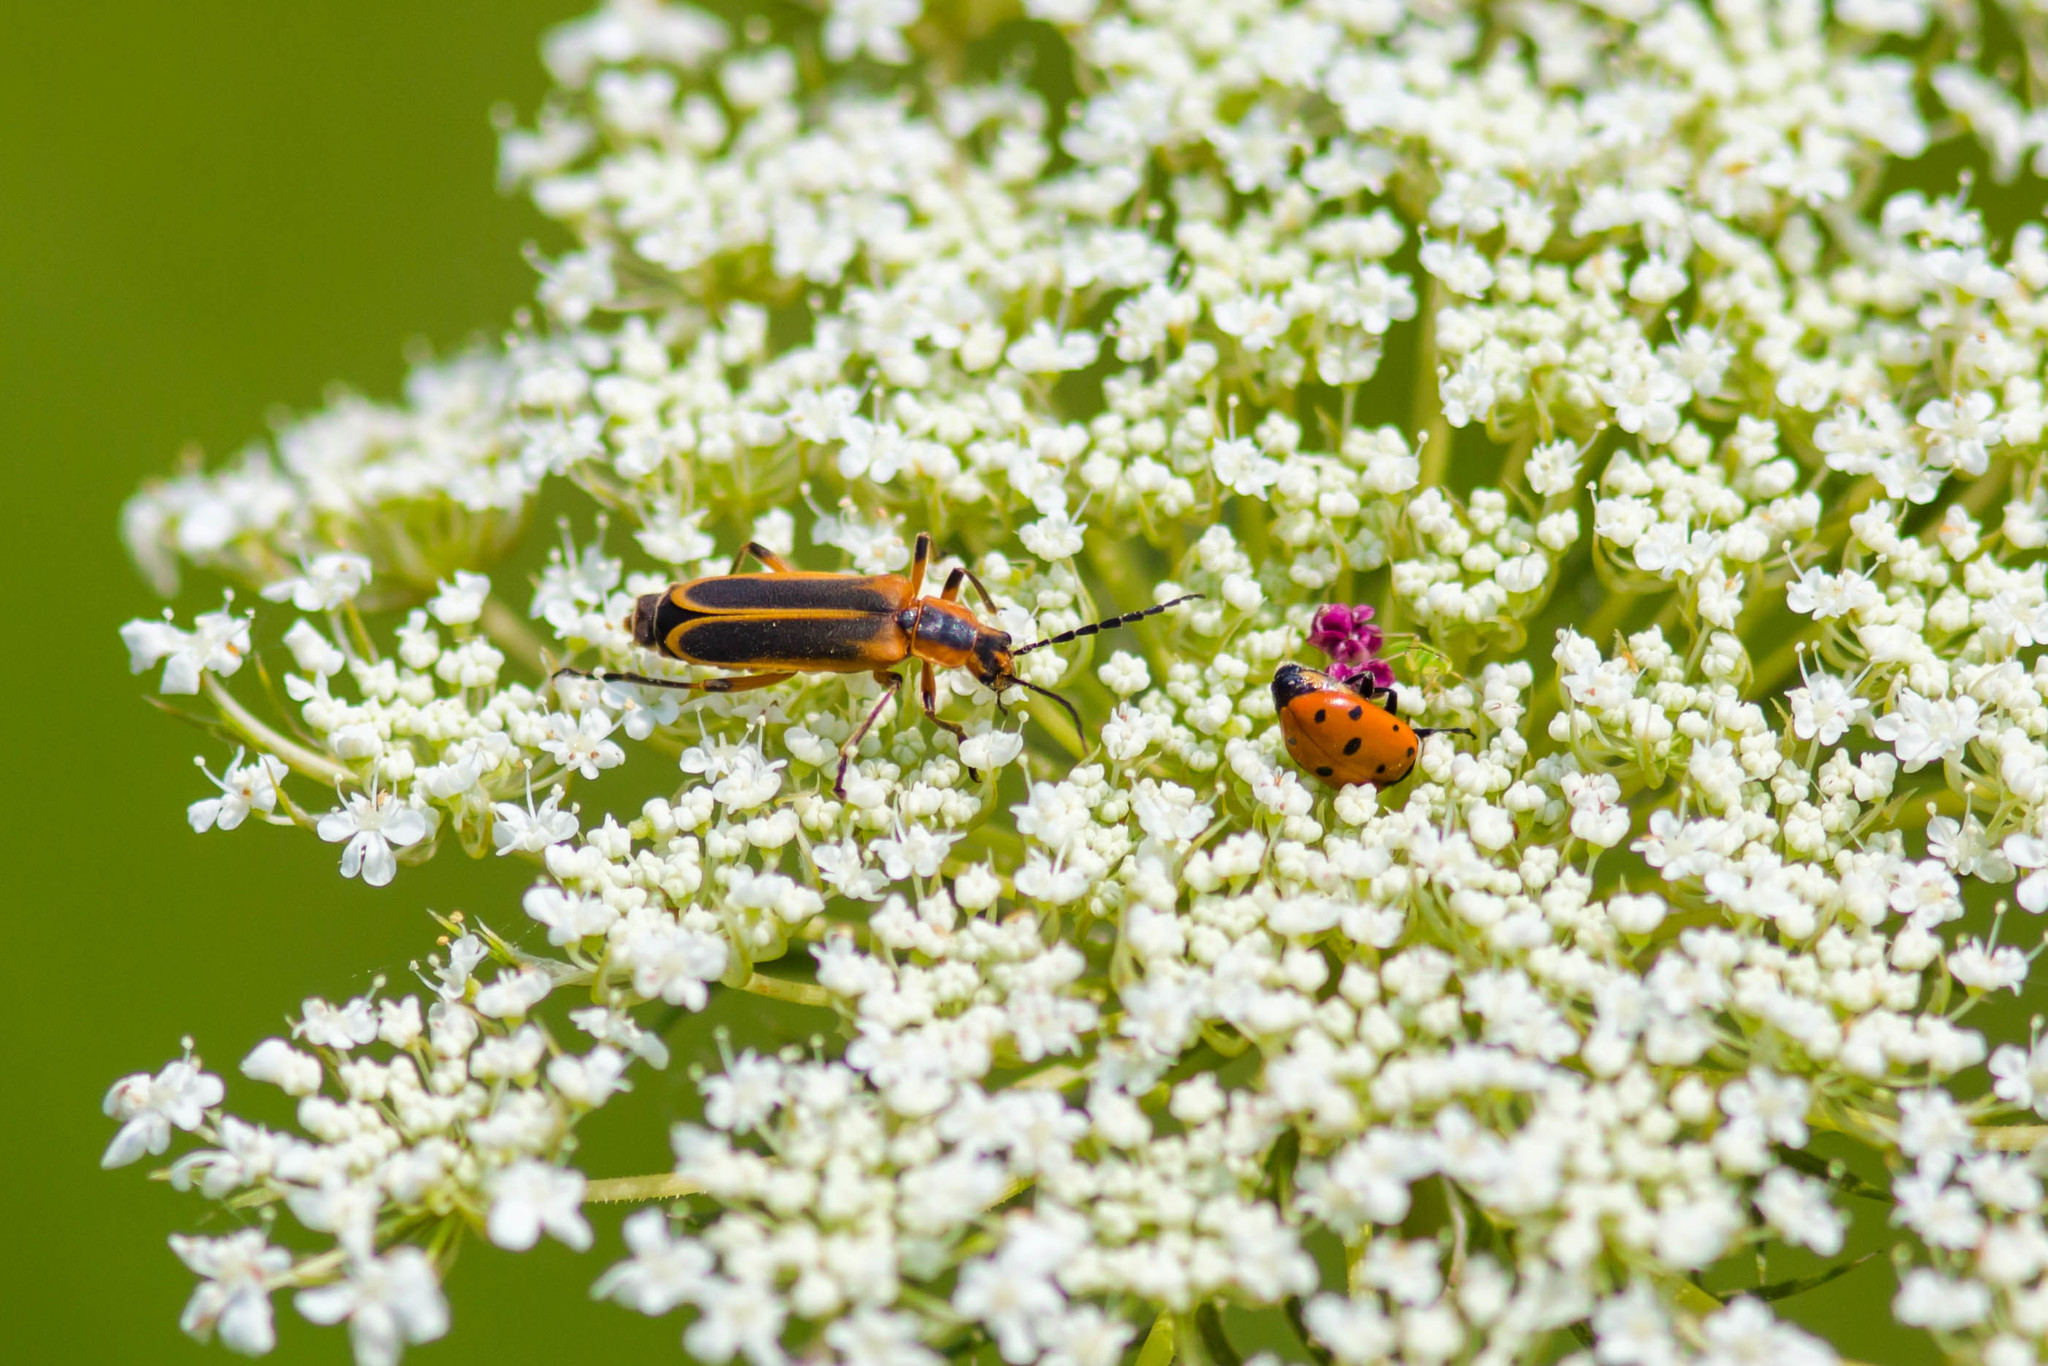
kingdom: Animalia
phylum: Arthropoda
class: Insecta
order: Coleoptera
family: Cantharidae
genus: Chauliognathus
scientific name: Chauliognathus marginatus
